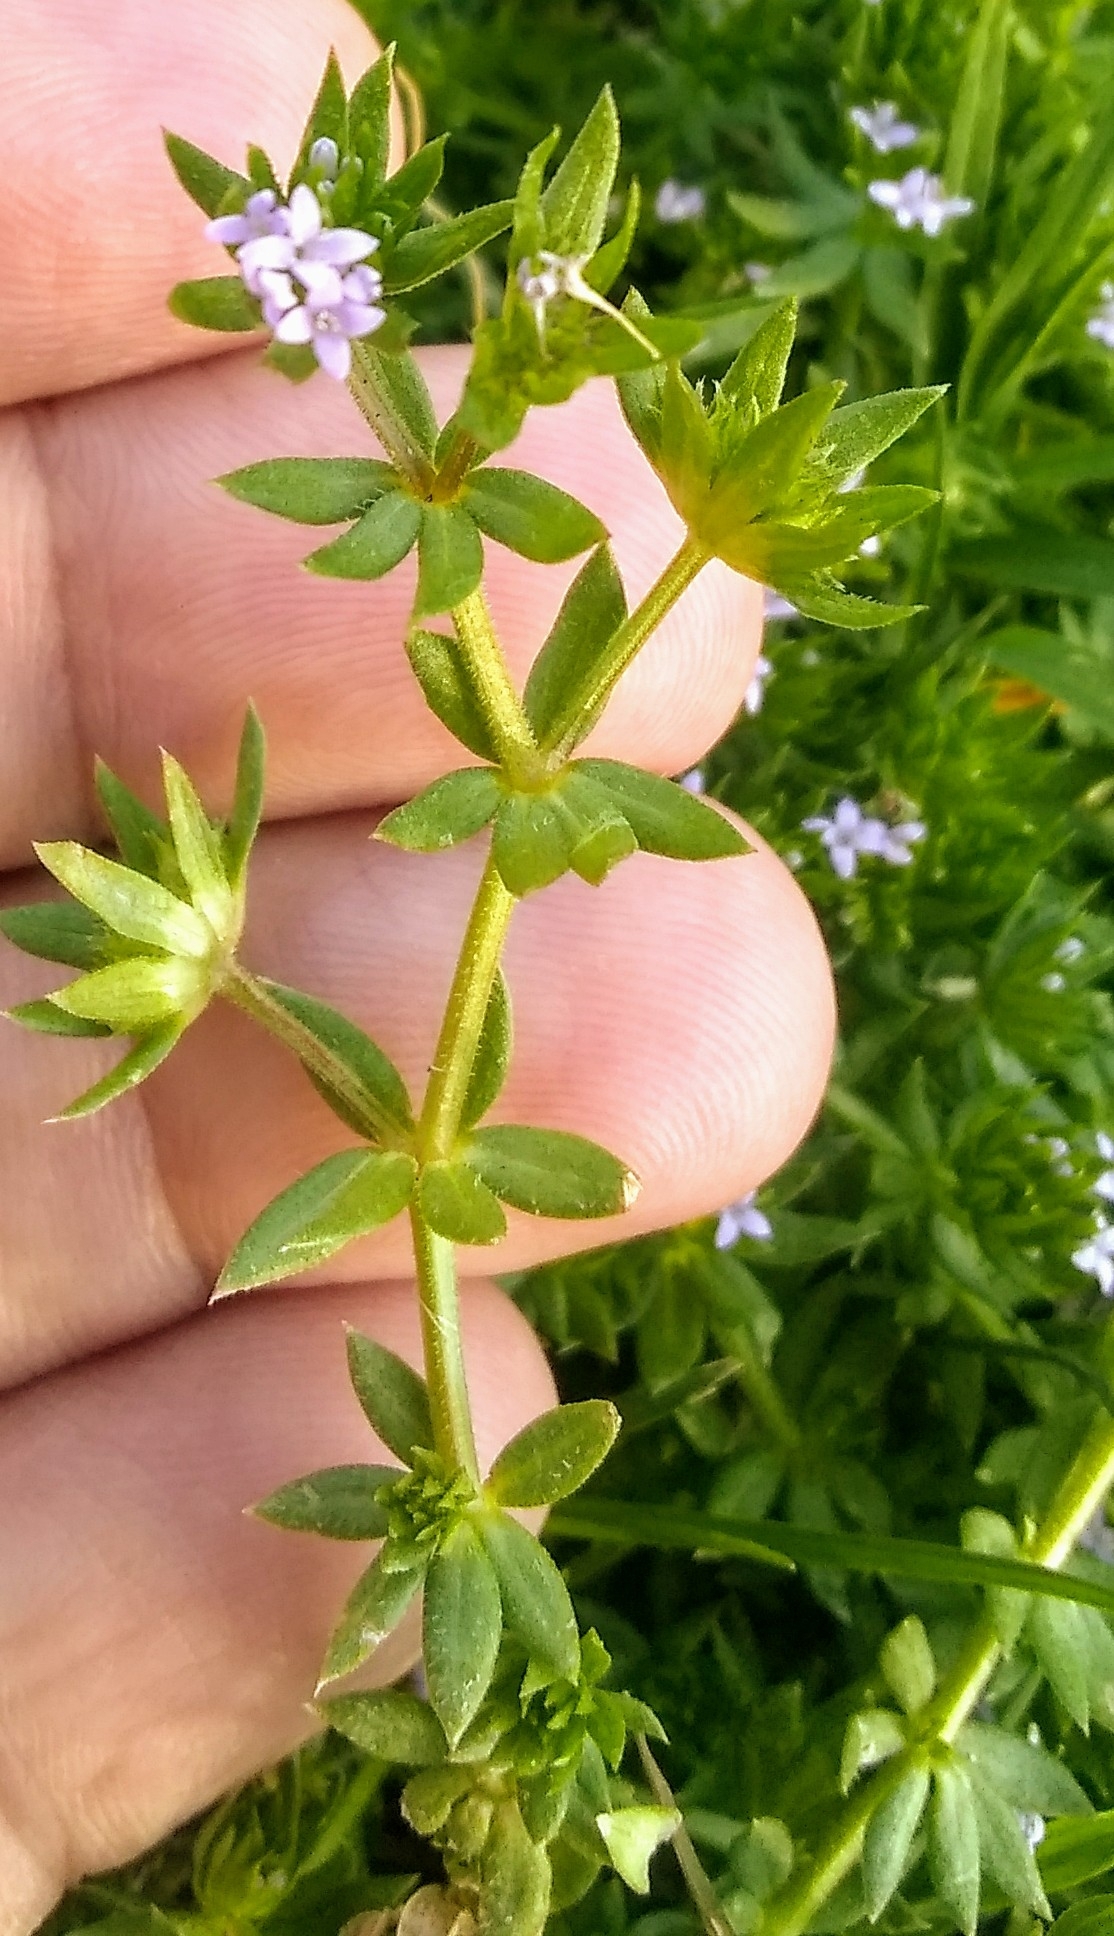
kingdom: Plantae
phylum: Tracheophyta
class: Magnoliopsida
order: Gentianales
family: Rubiaceae
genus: Sherardia
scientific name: Sherardia arvensis
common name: Field madder
